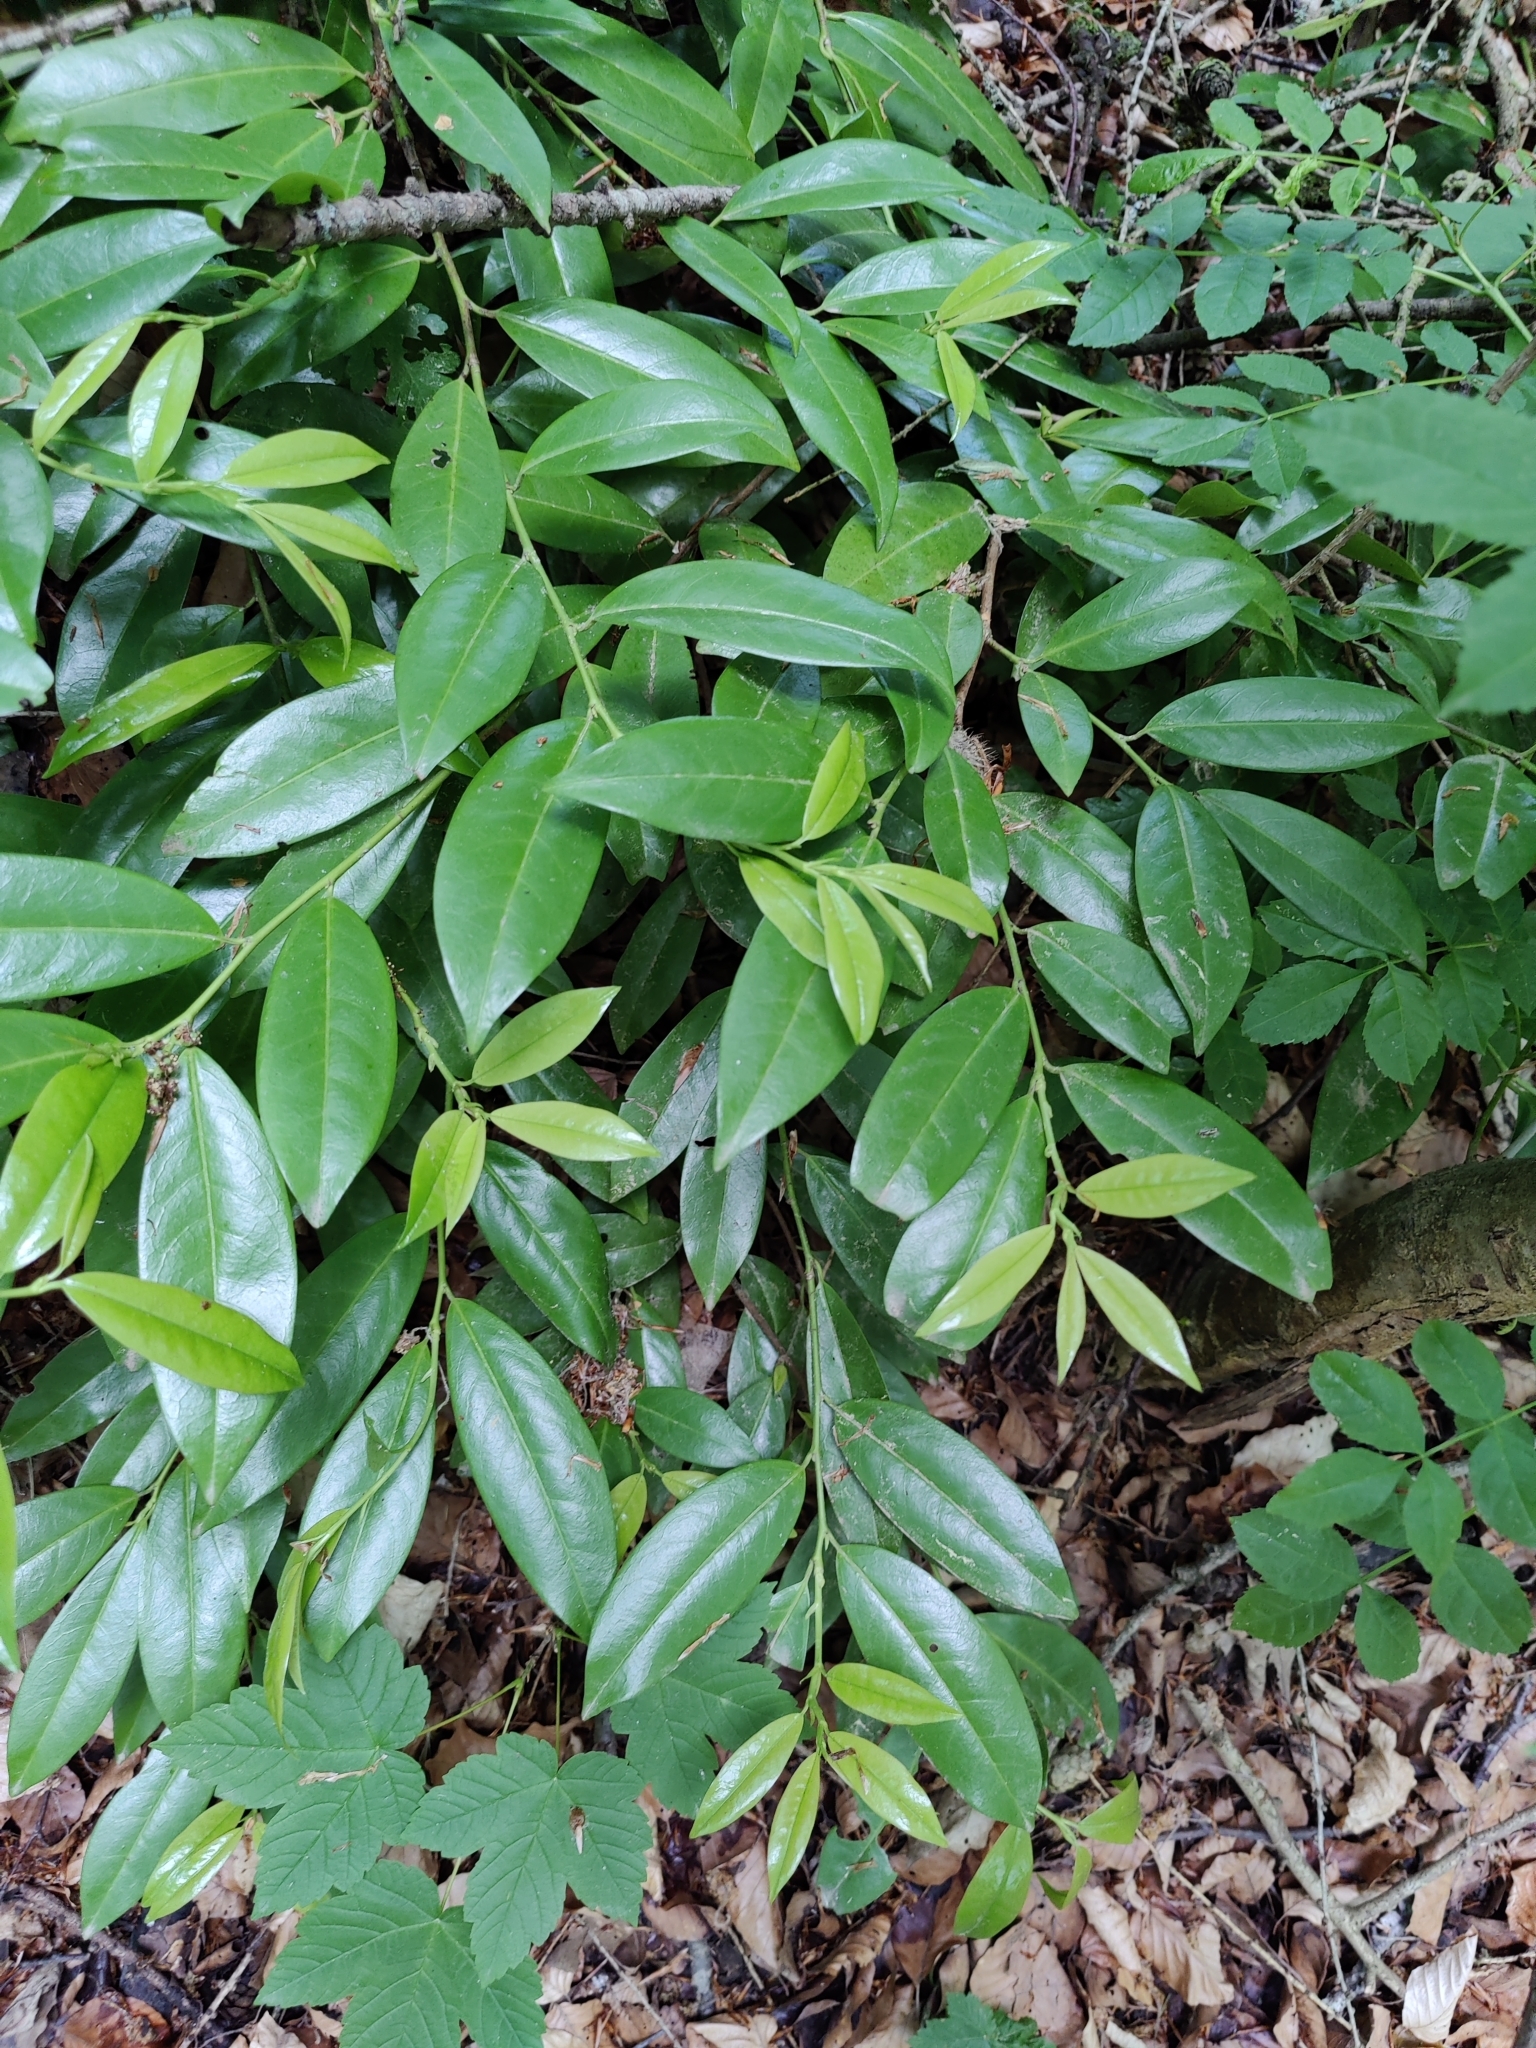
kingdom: Plantae
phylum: Tracheophyta
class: Magnoliopsida
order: Rosales
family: Rosaceae
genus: Prunus
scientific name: Prunus laurocerasus
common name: Cherry laurel
